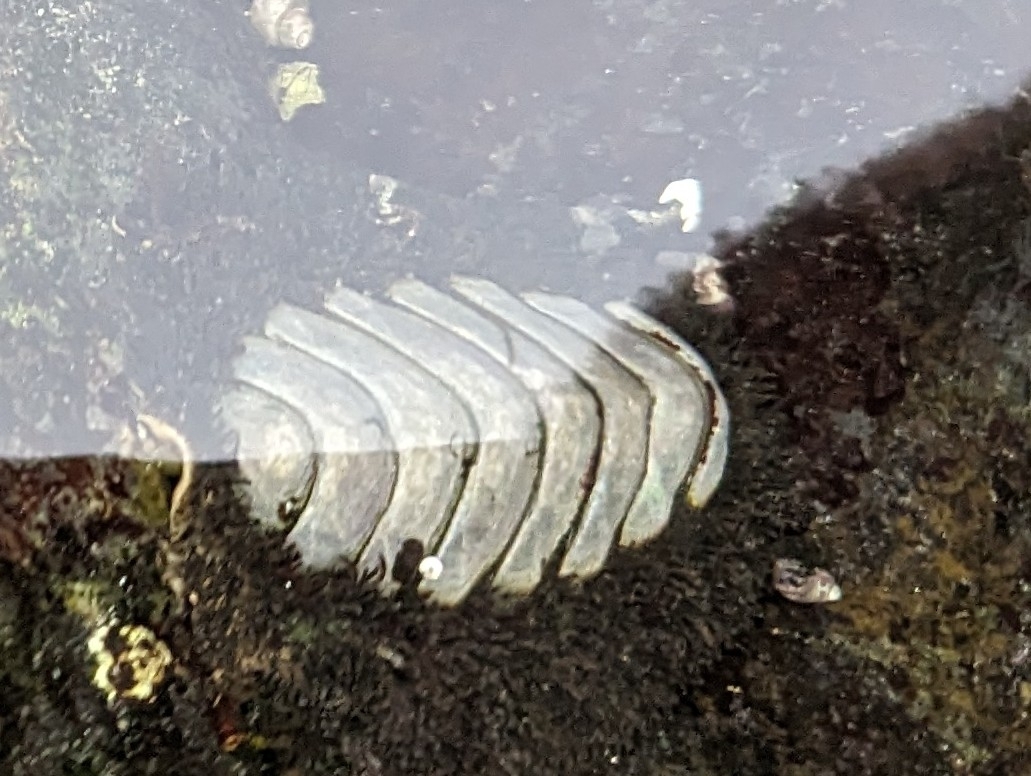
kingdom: Animalia
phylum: Mollusca
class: Polyplacophora
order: Chitonida
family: Mopaliidae
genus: Mopalia
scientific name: Mopalia muscosa
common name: Mossy chiton
